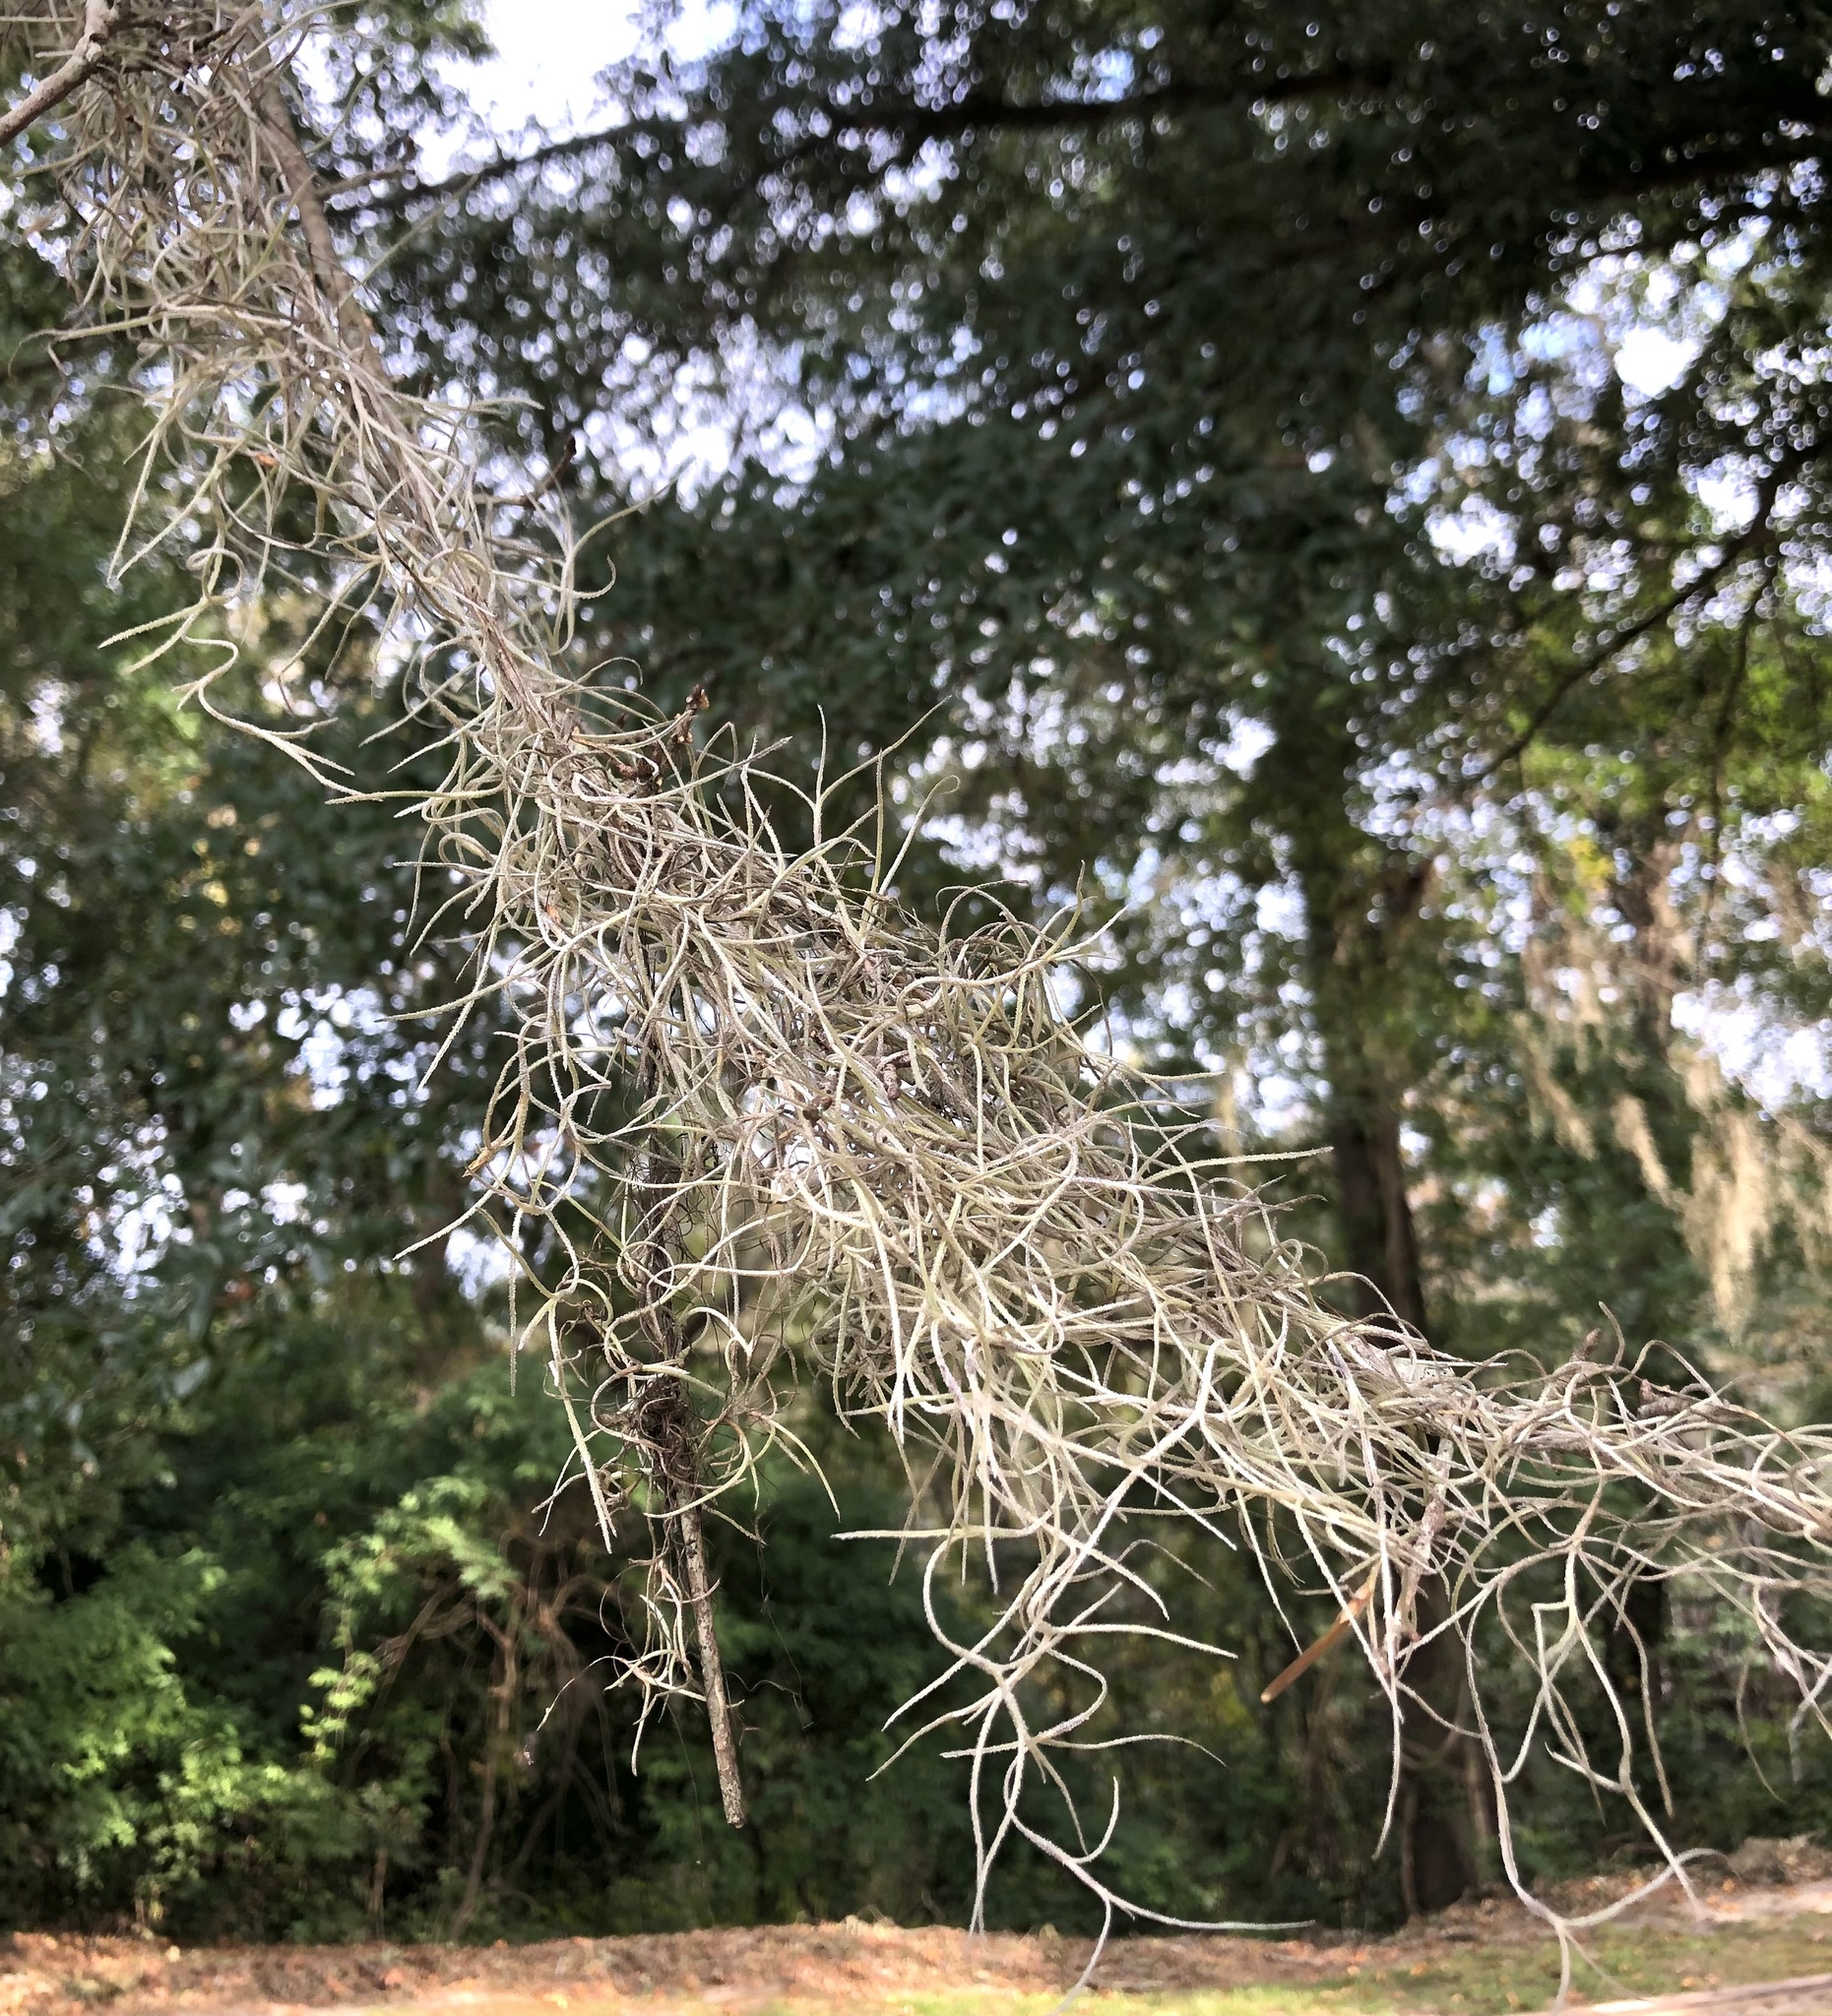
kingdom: Plantae
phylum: Tracheophyta
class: Liliopsida
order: Poales
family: Bromeliaceae
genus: Tillandsia
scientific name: Tillandsia usneoides
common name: Spanish moss
